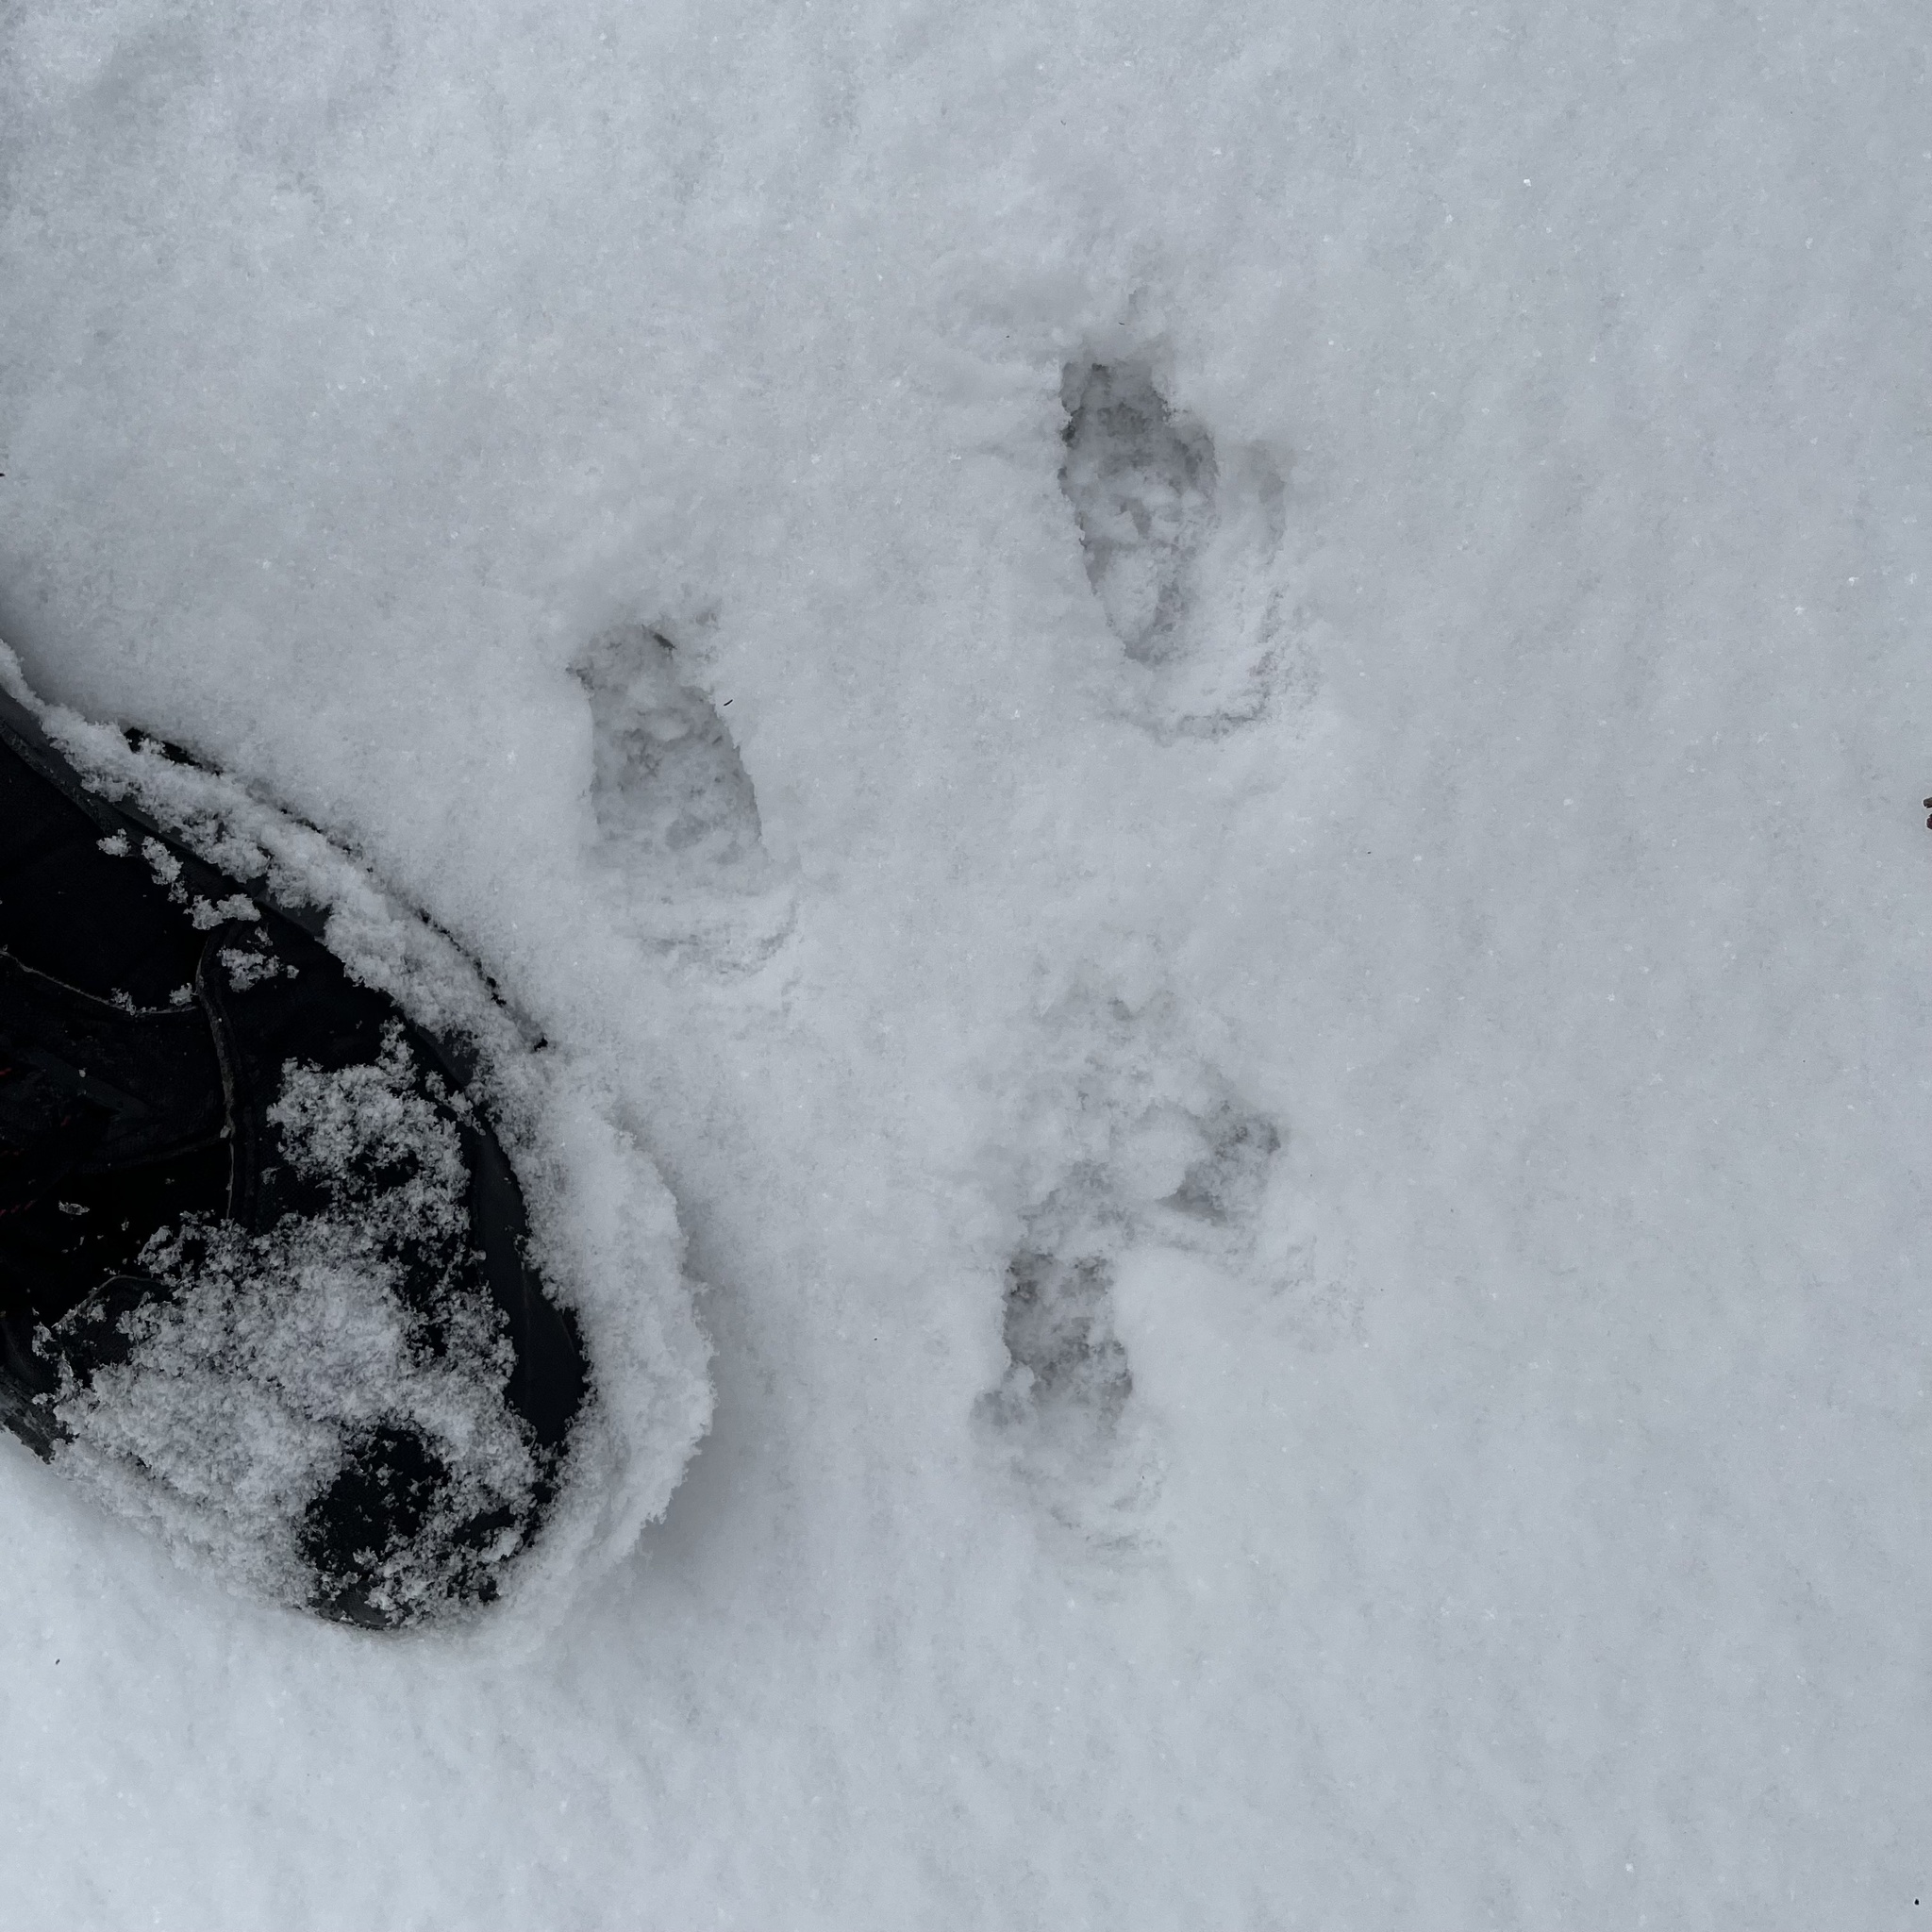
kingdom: Animalia
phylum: Chordata
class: Mammalia
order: Rodentia
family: Sciuridae
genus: Sciurus
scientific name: Sciurus vulgaris
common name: Eurasian red squirrel
